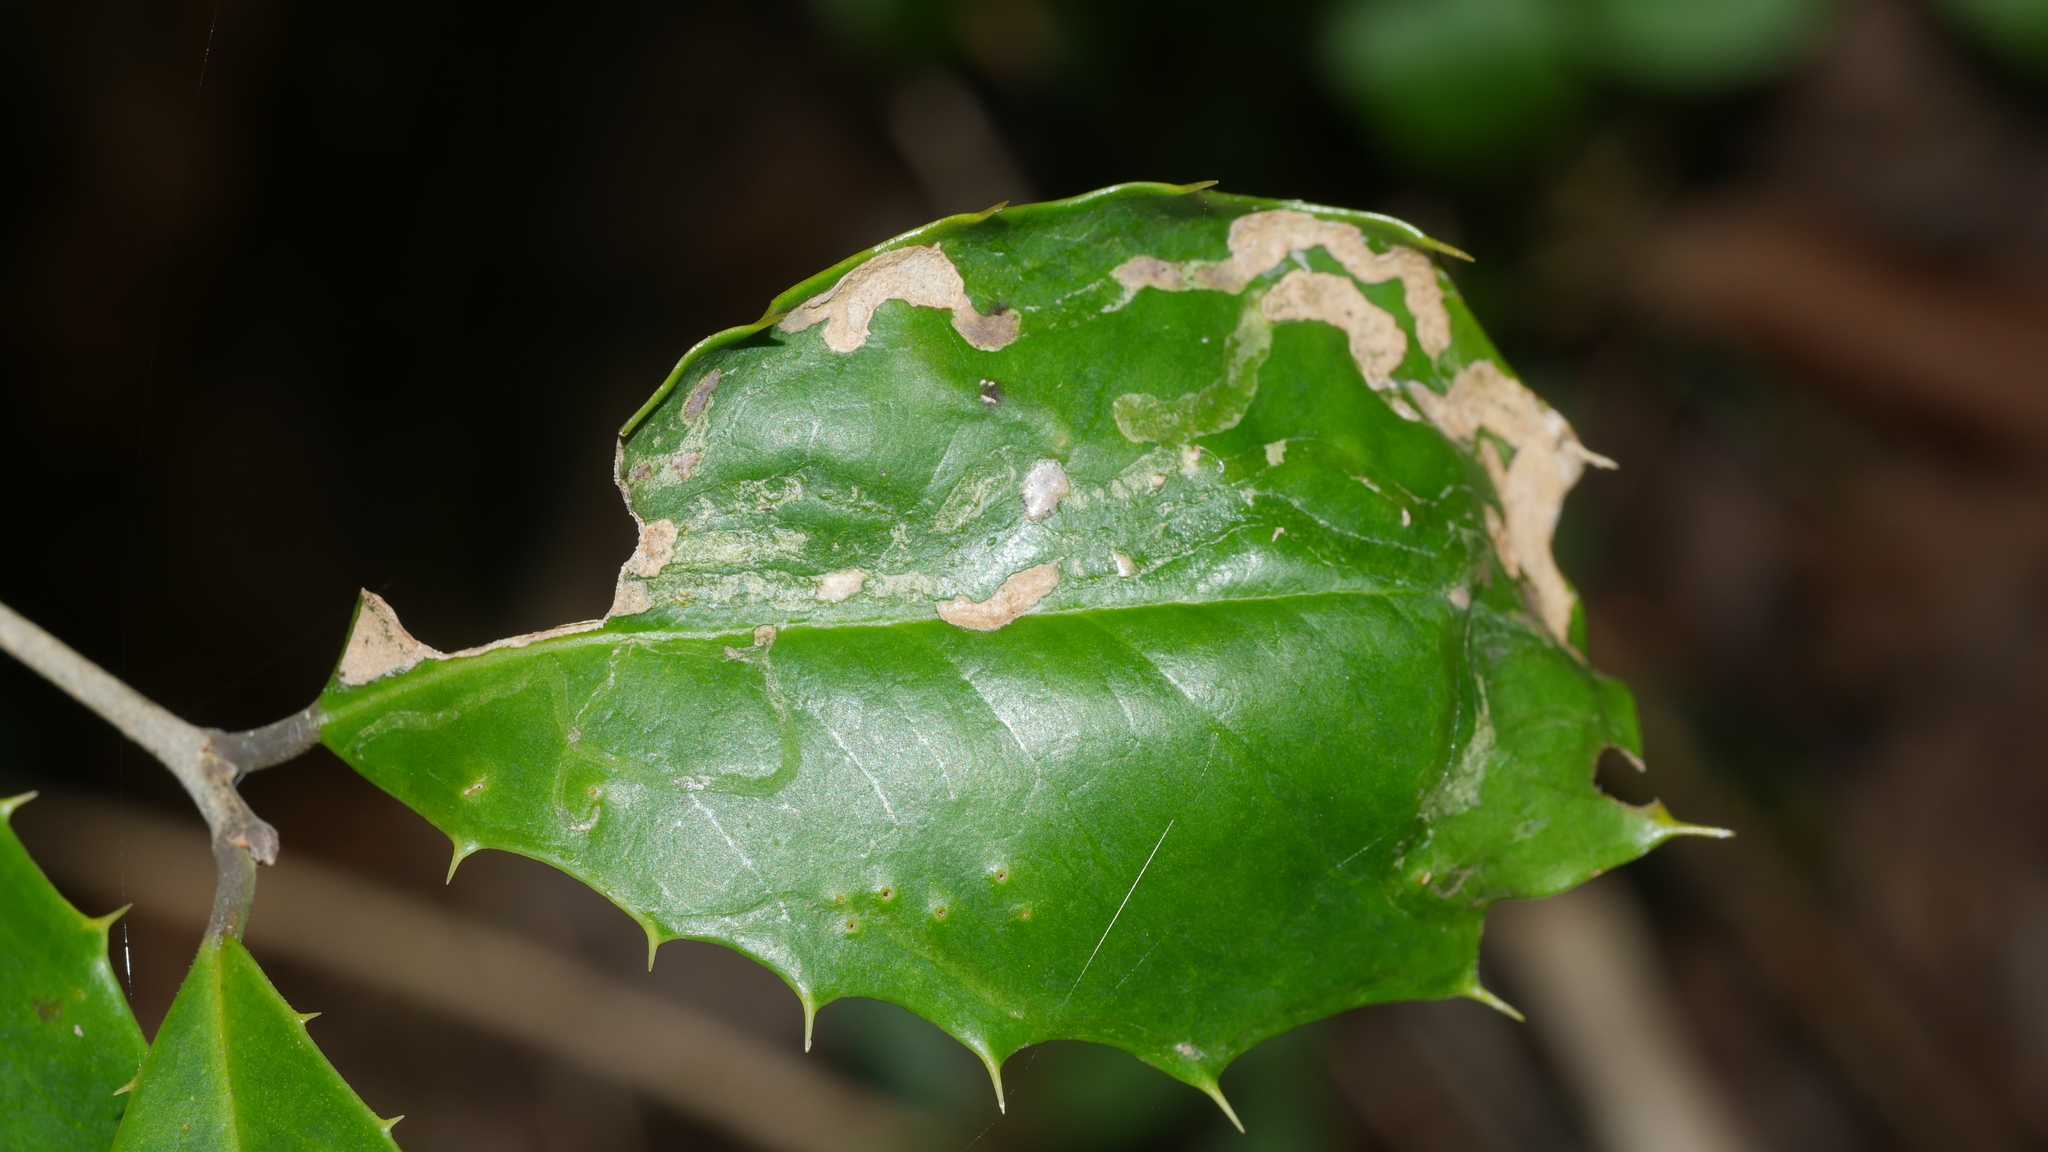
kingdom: Animalia
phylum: Arthropoda
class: Insecta
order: Diptera
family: Agromyzidae
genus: Phytomyza
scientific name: Phytomyza opacae
